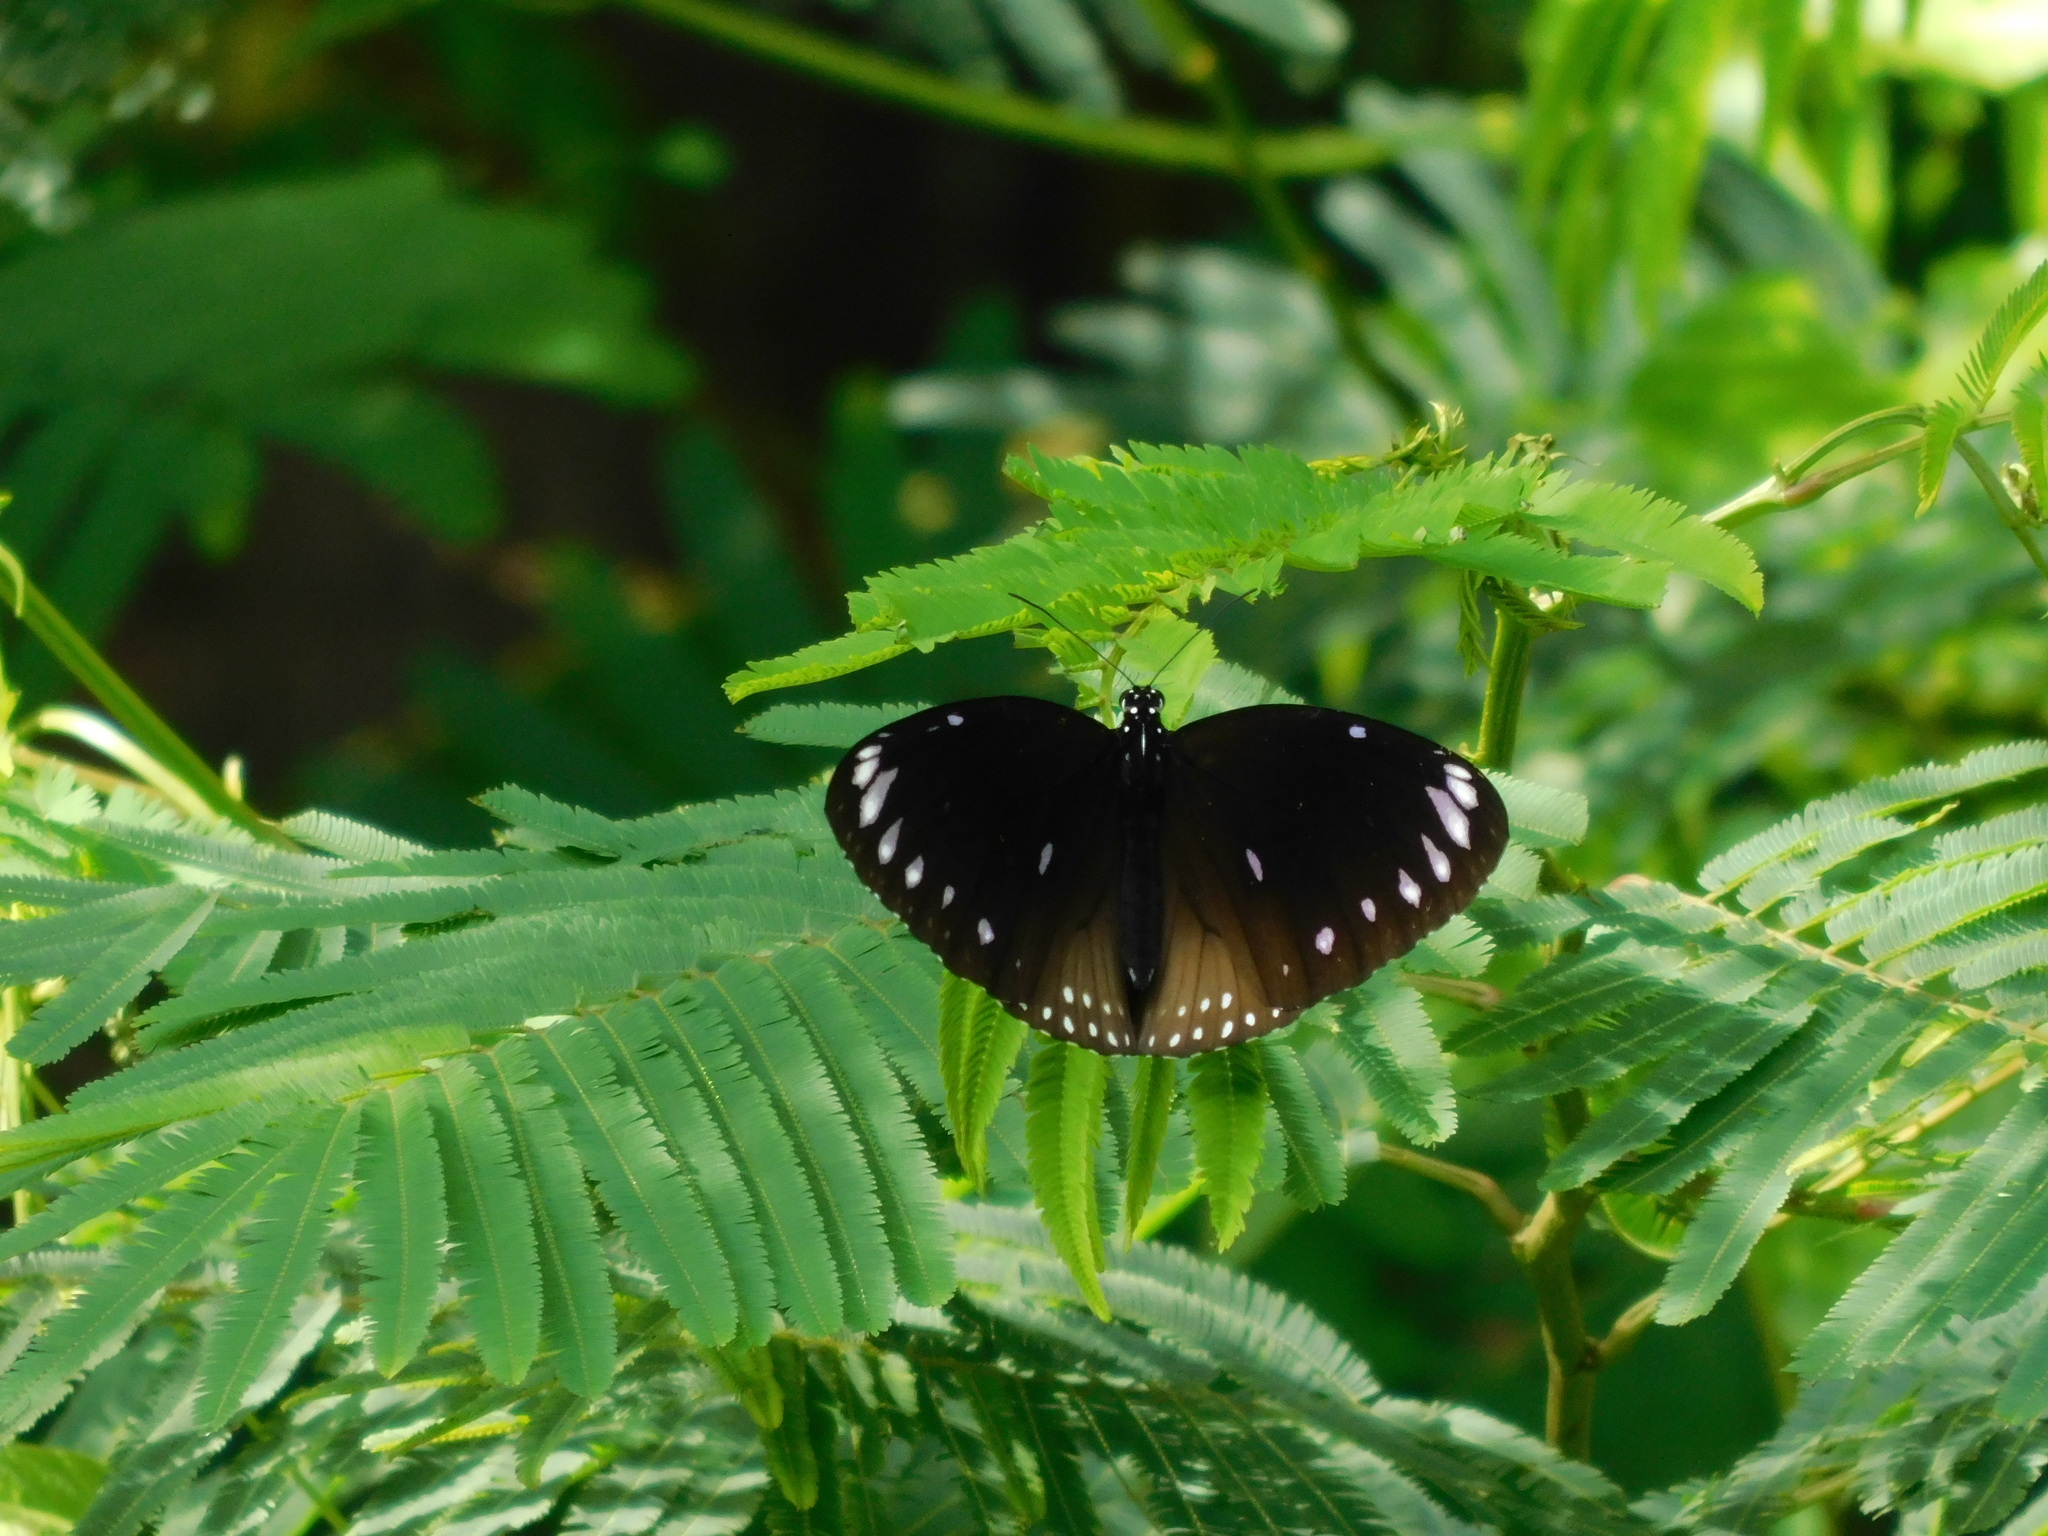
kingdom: Animalia
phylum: Arthropoda
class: Insecta
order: Lepidoptera
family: Nymphalidae
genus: Euploea
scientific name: Euploea eunice
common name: Blue-banded king crow butterfly
